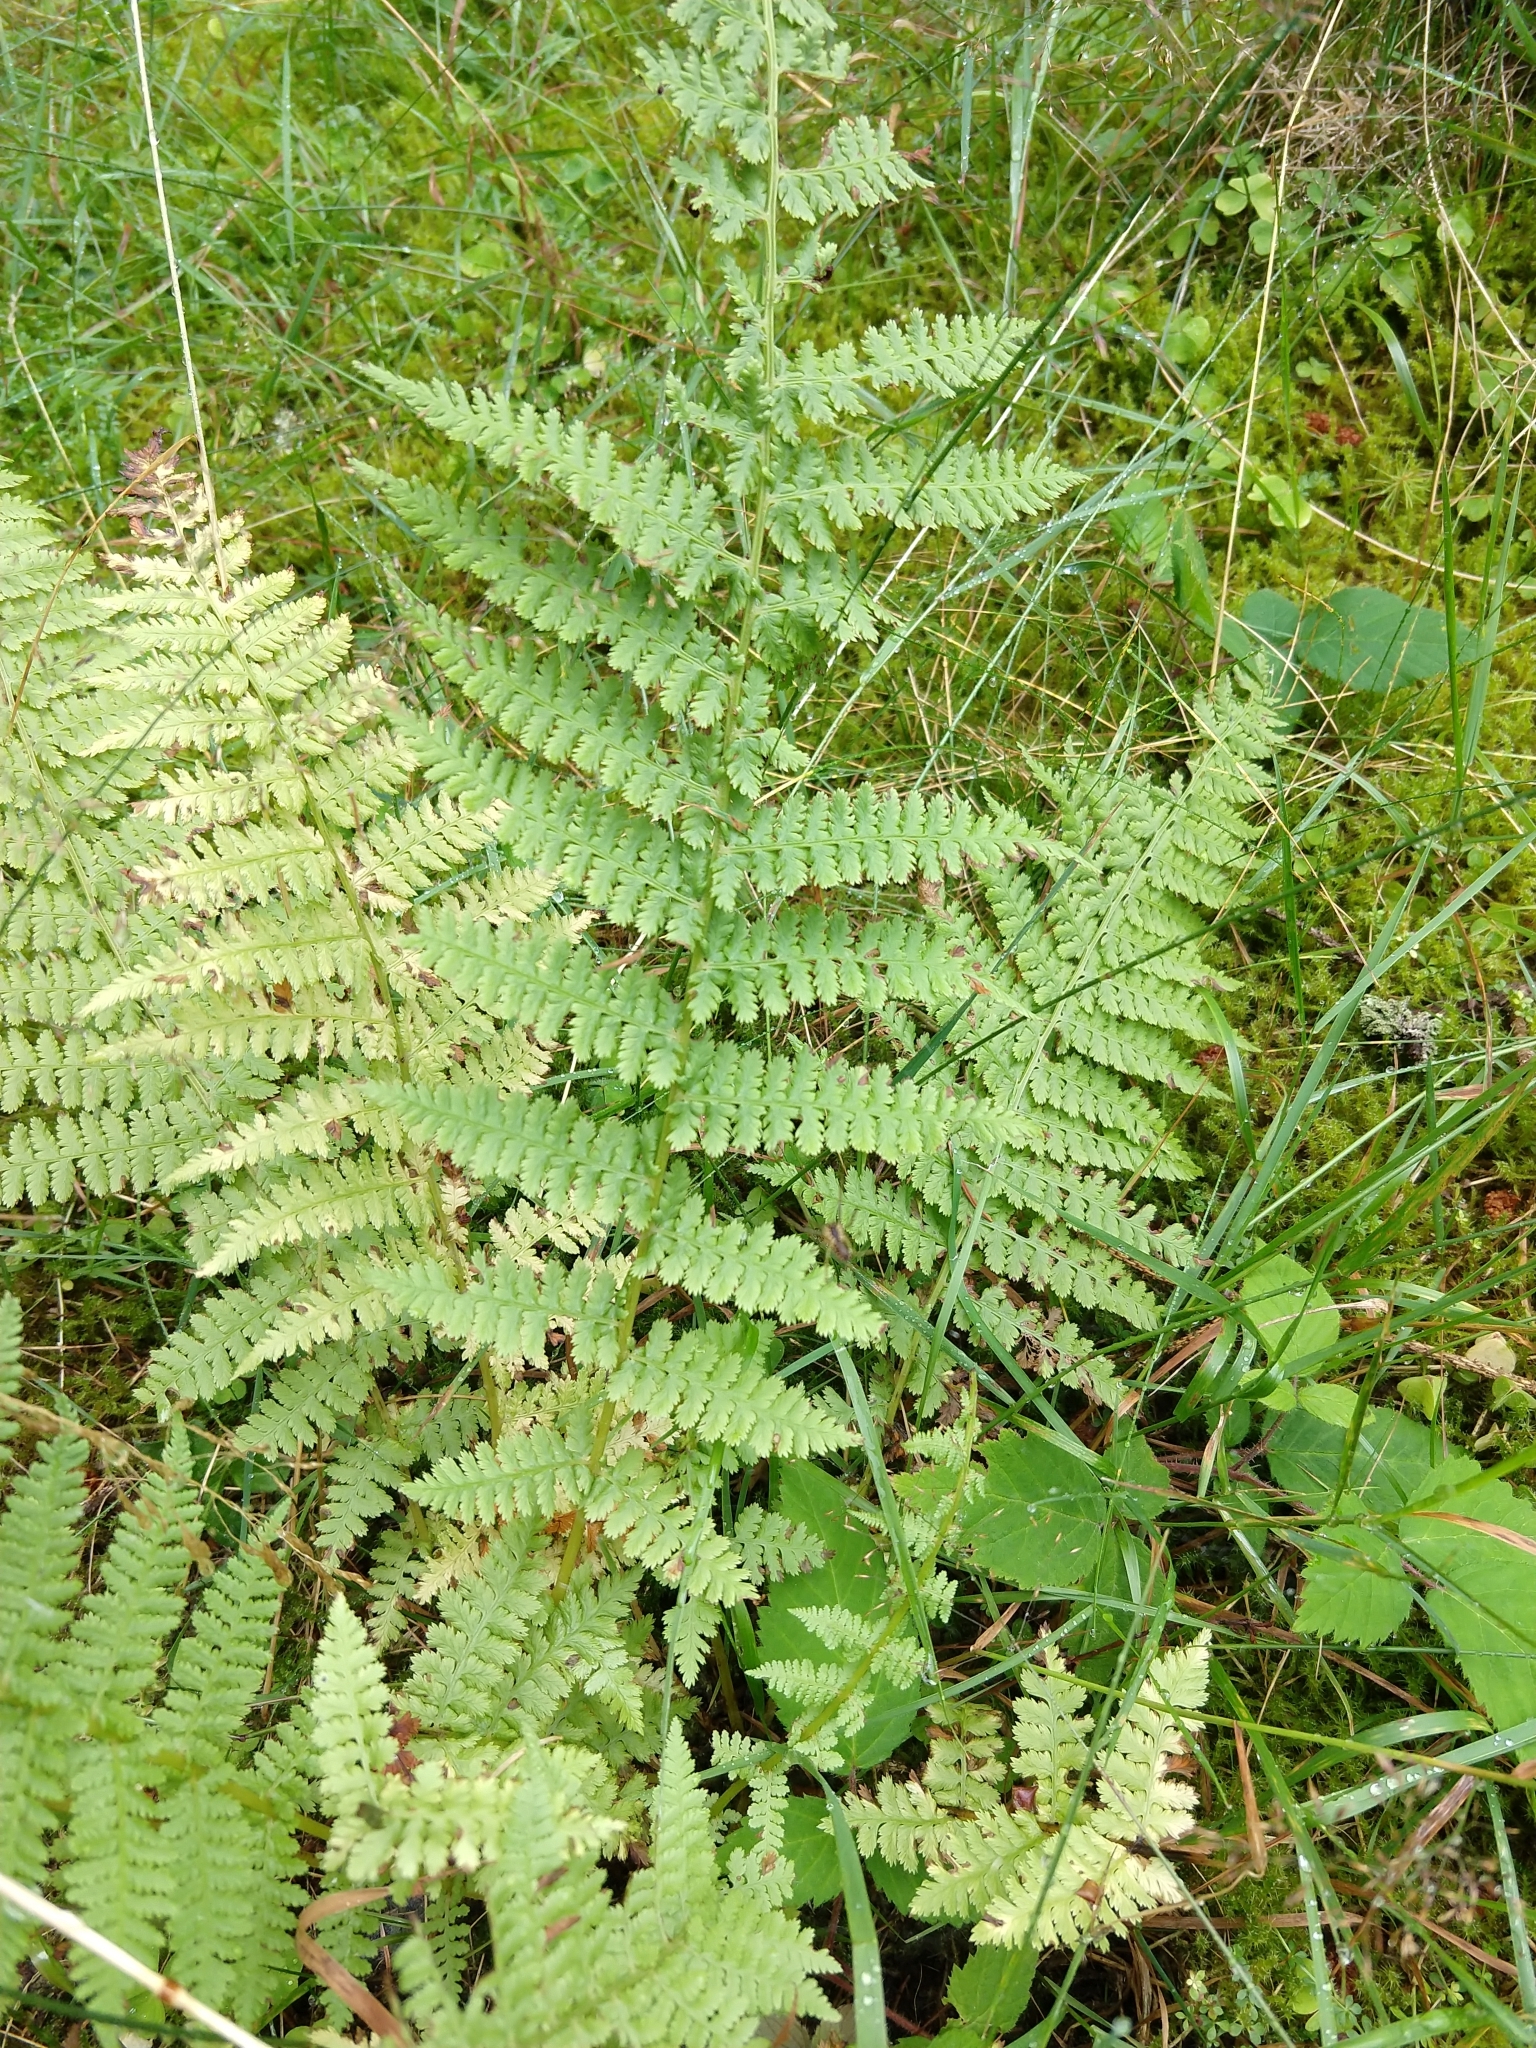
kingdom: Plantae
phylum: Tracheophyta
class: Polypodiopsida
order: Polypodiales
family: Athyriaceae
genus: Athyrium
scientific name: Athyrium filix-femina
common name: Lady fern
